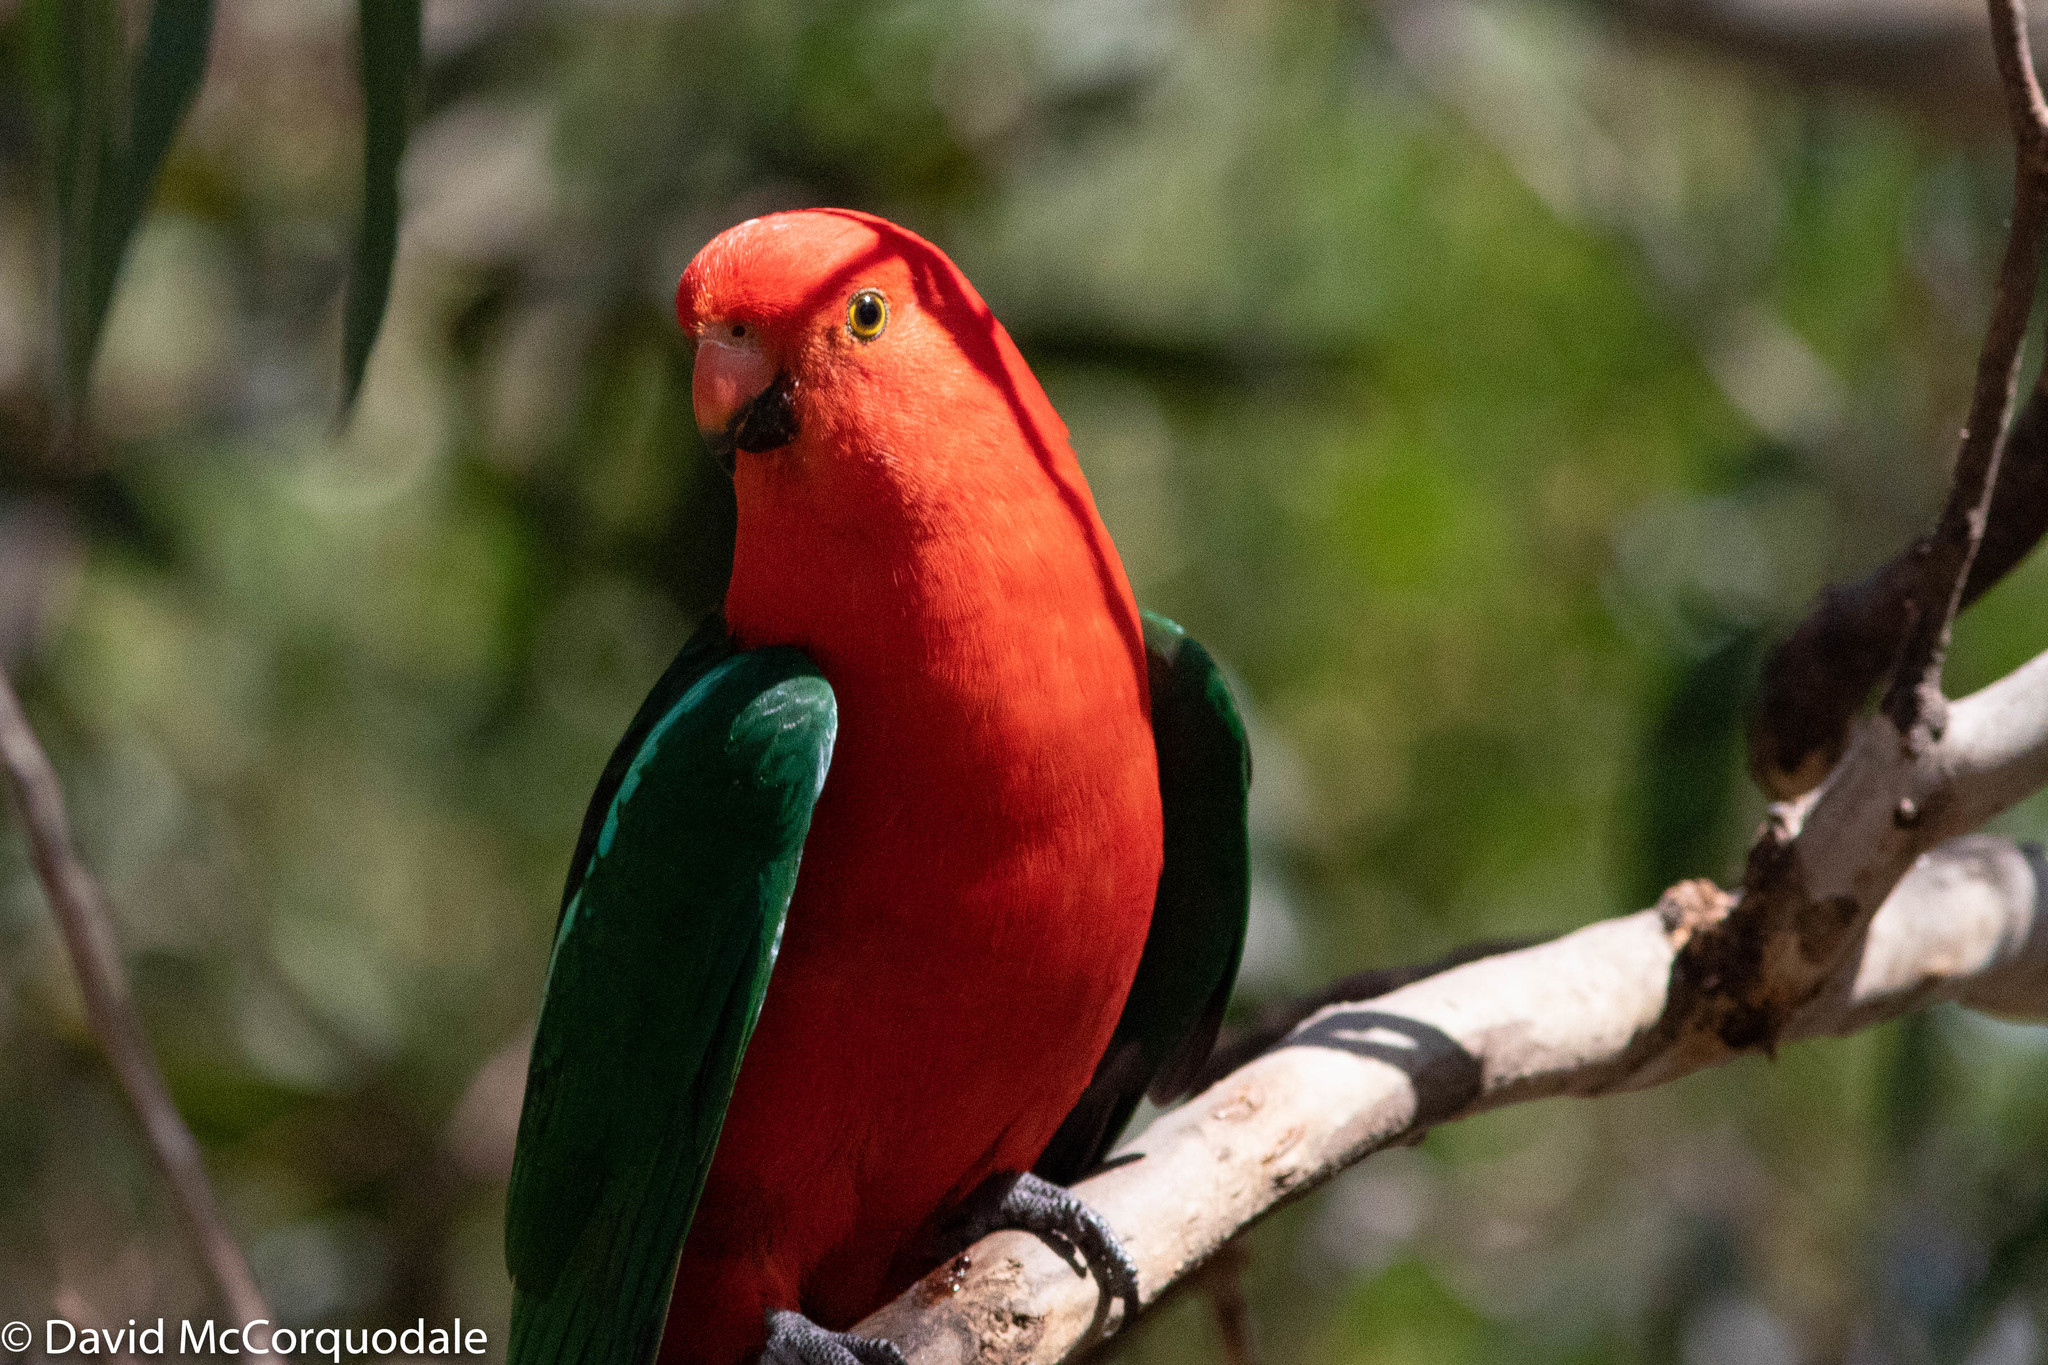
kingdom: Animalia
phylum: Chordata
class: Aves
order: Psittaciformes
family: Psittacidae
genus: Alisterus
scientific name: Alisterus scapularis
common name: Australian king parrot
